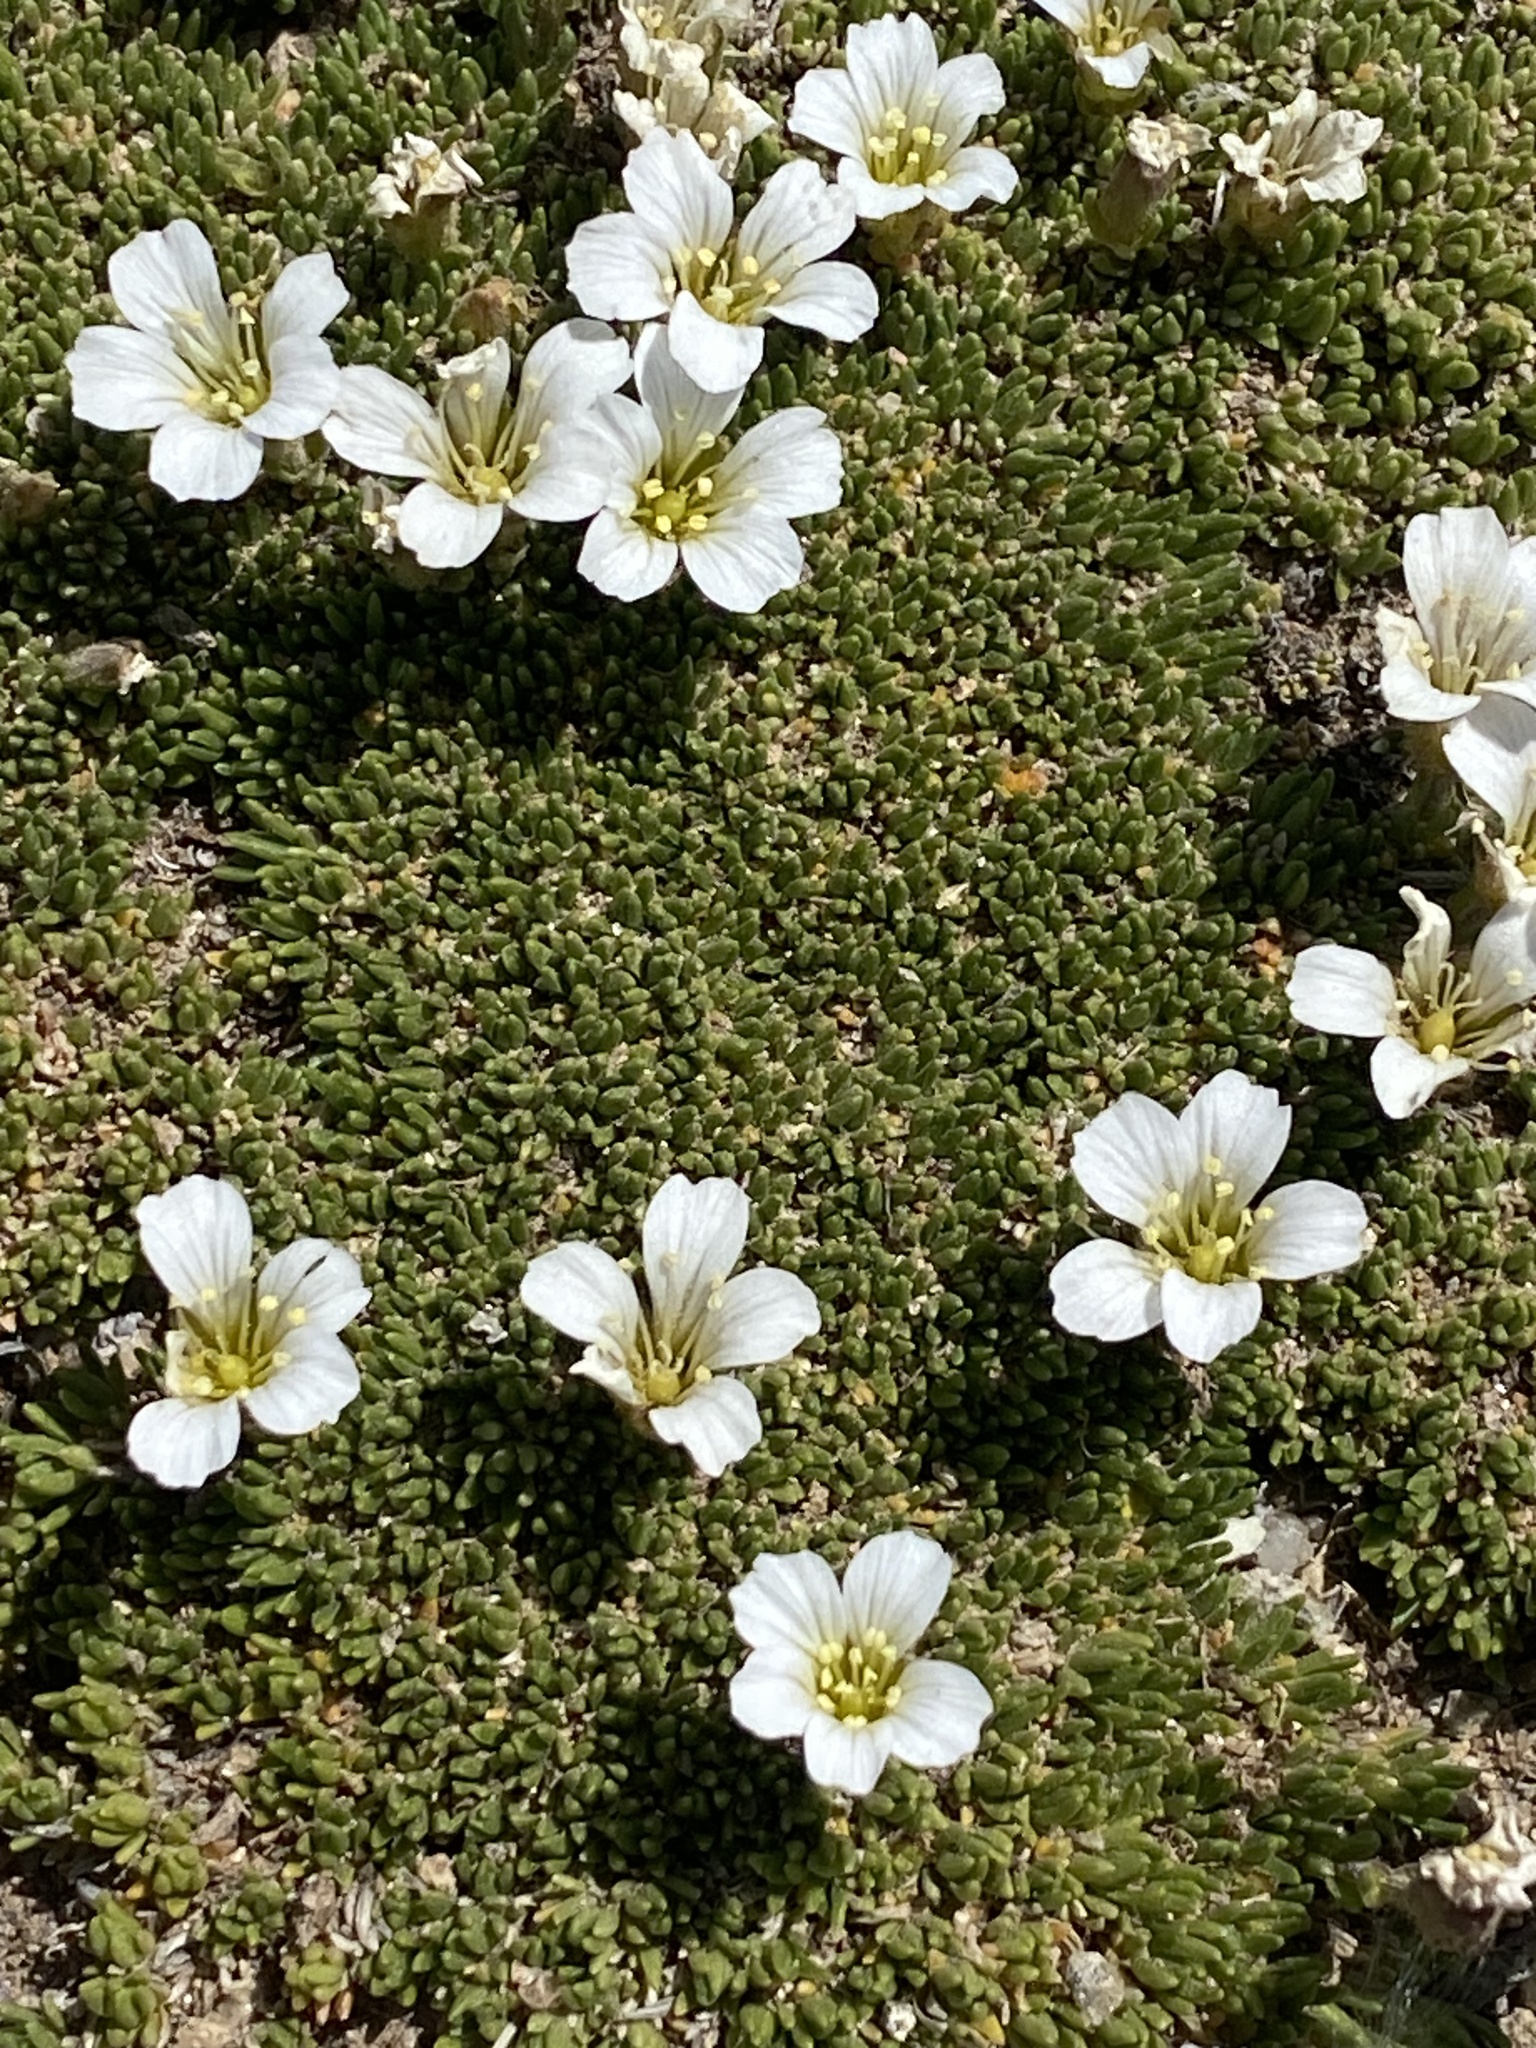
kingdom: Plantae
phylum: Tracheophyta
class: Magnoliopsida
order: Caryophyllales
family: Caryophyllaceae
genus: Cherleria
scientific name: Cherleria obtusiloba
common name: Alpine stitchwort
